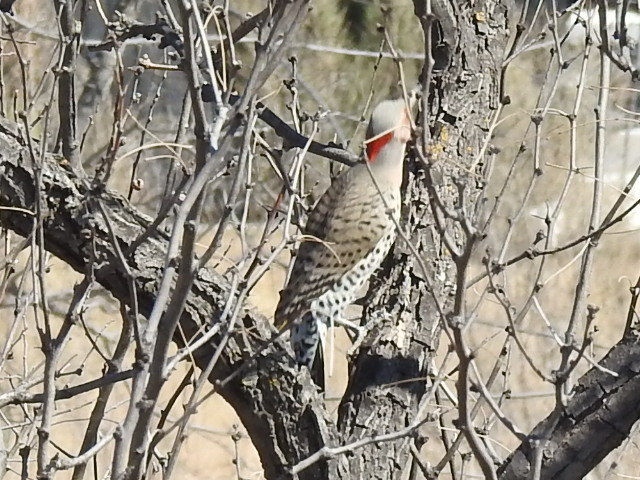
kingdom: Animalia
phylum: Chordata
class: Aves
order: Piciformes
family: Picidae
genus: Colaptes
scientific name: Colaptes auratus
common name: Northern flicker
